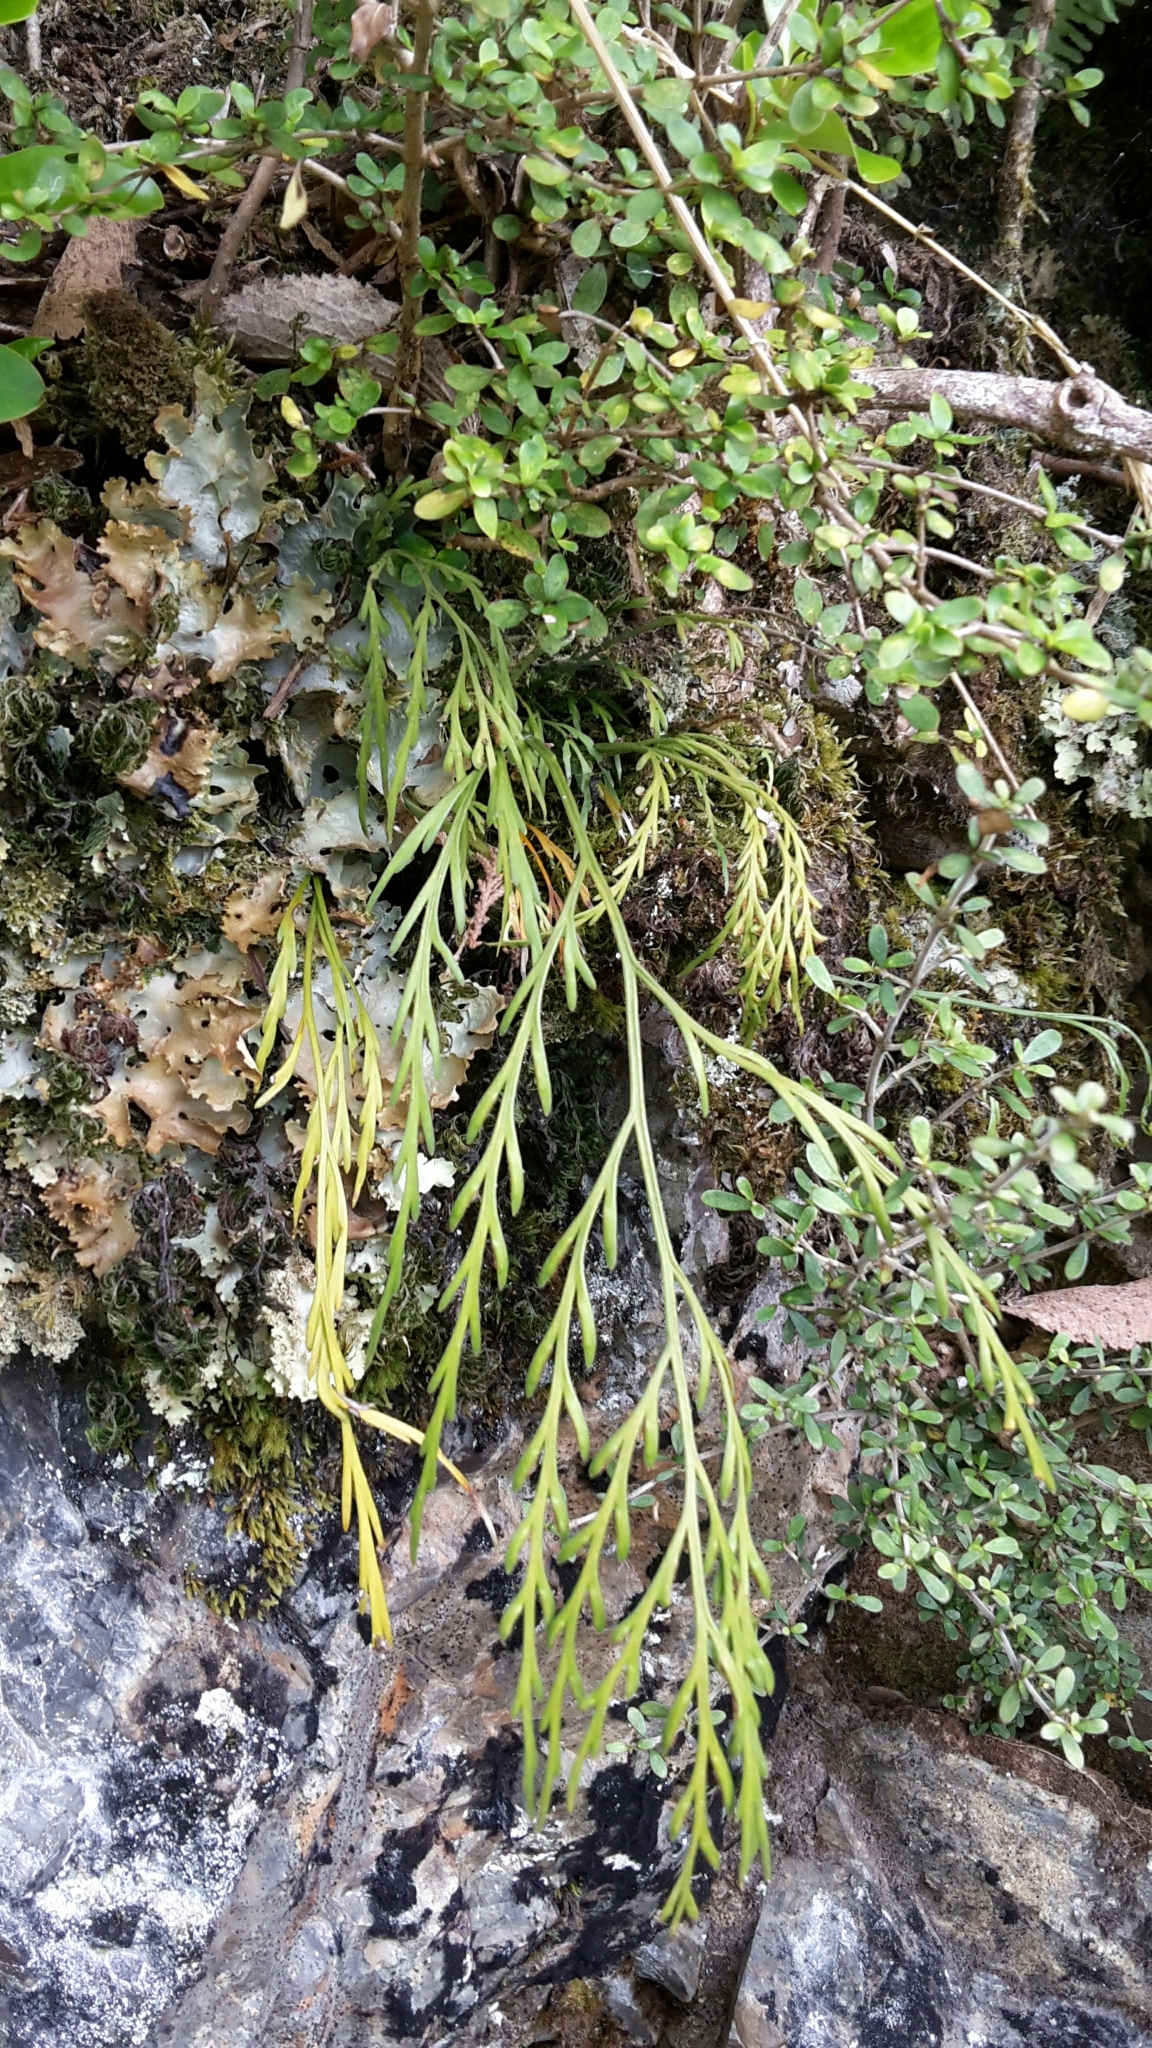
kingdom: Plantae
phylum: Tracheophyta
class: Polypodiopsida
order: Polypodiales
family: Aspleniaceae
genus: Asplenium
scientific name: Asplenium flaccidum
